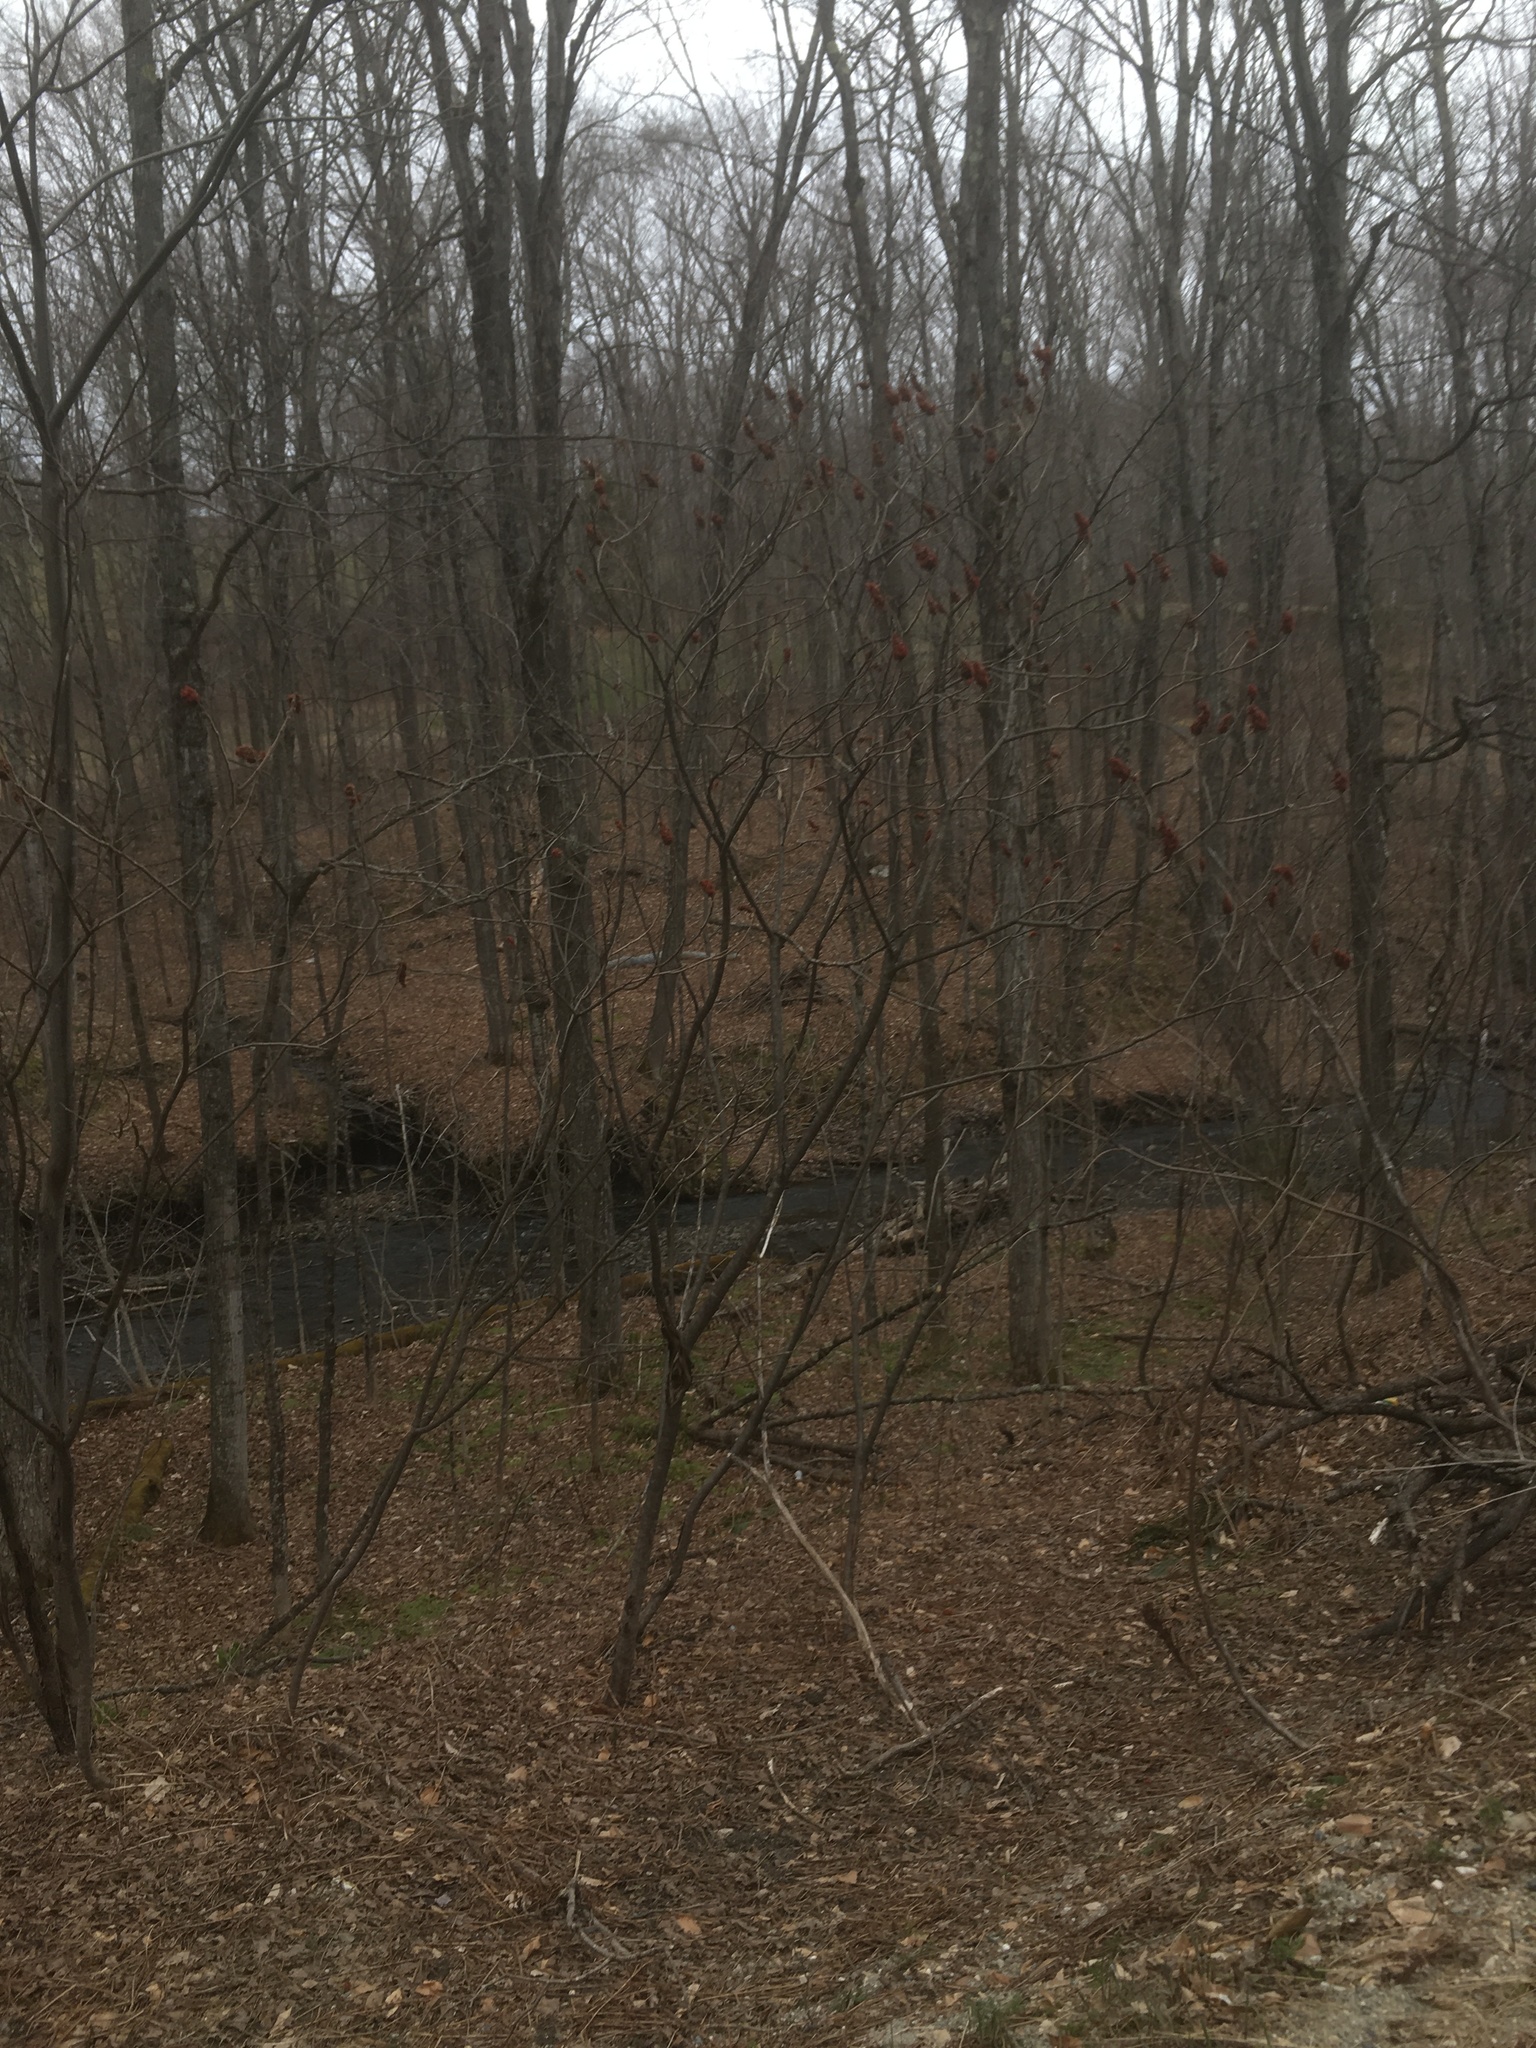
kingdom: Plantae
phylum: Tracheophyta
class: Magnoliopsida
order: Sapindales
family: Anacardiaceae
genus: Rhus
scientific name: Rhus typhina
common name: Staghorn sumac
